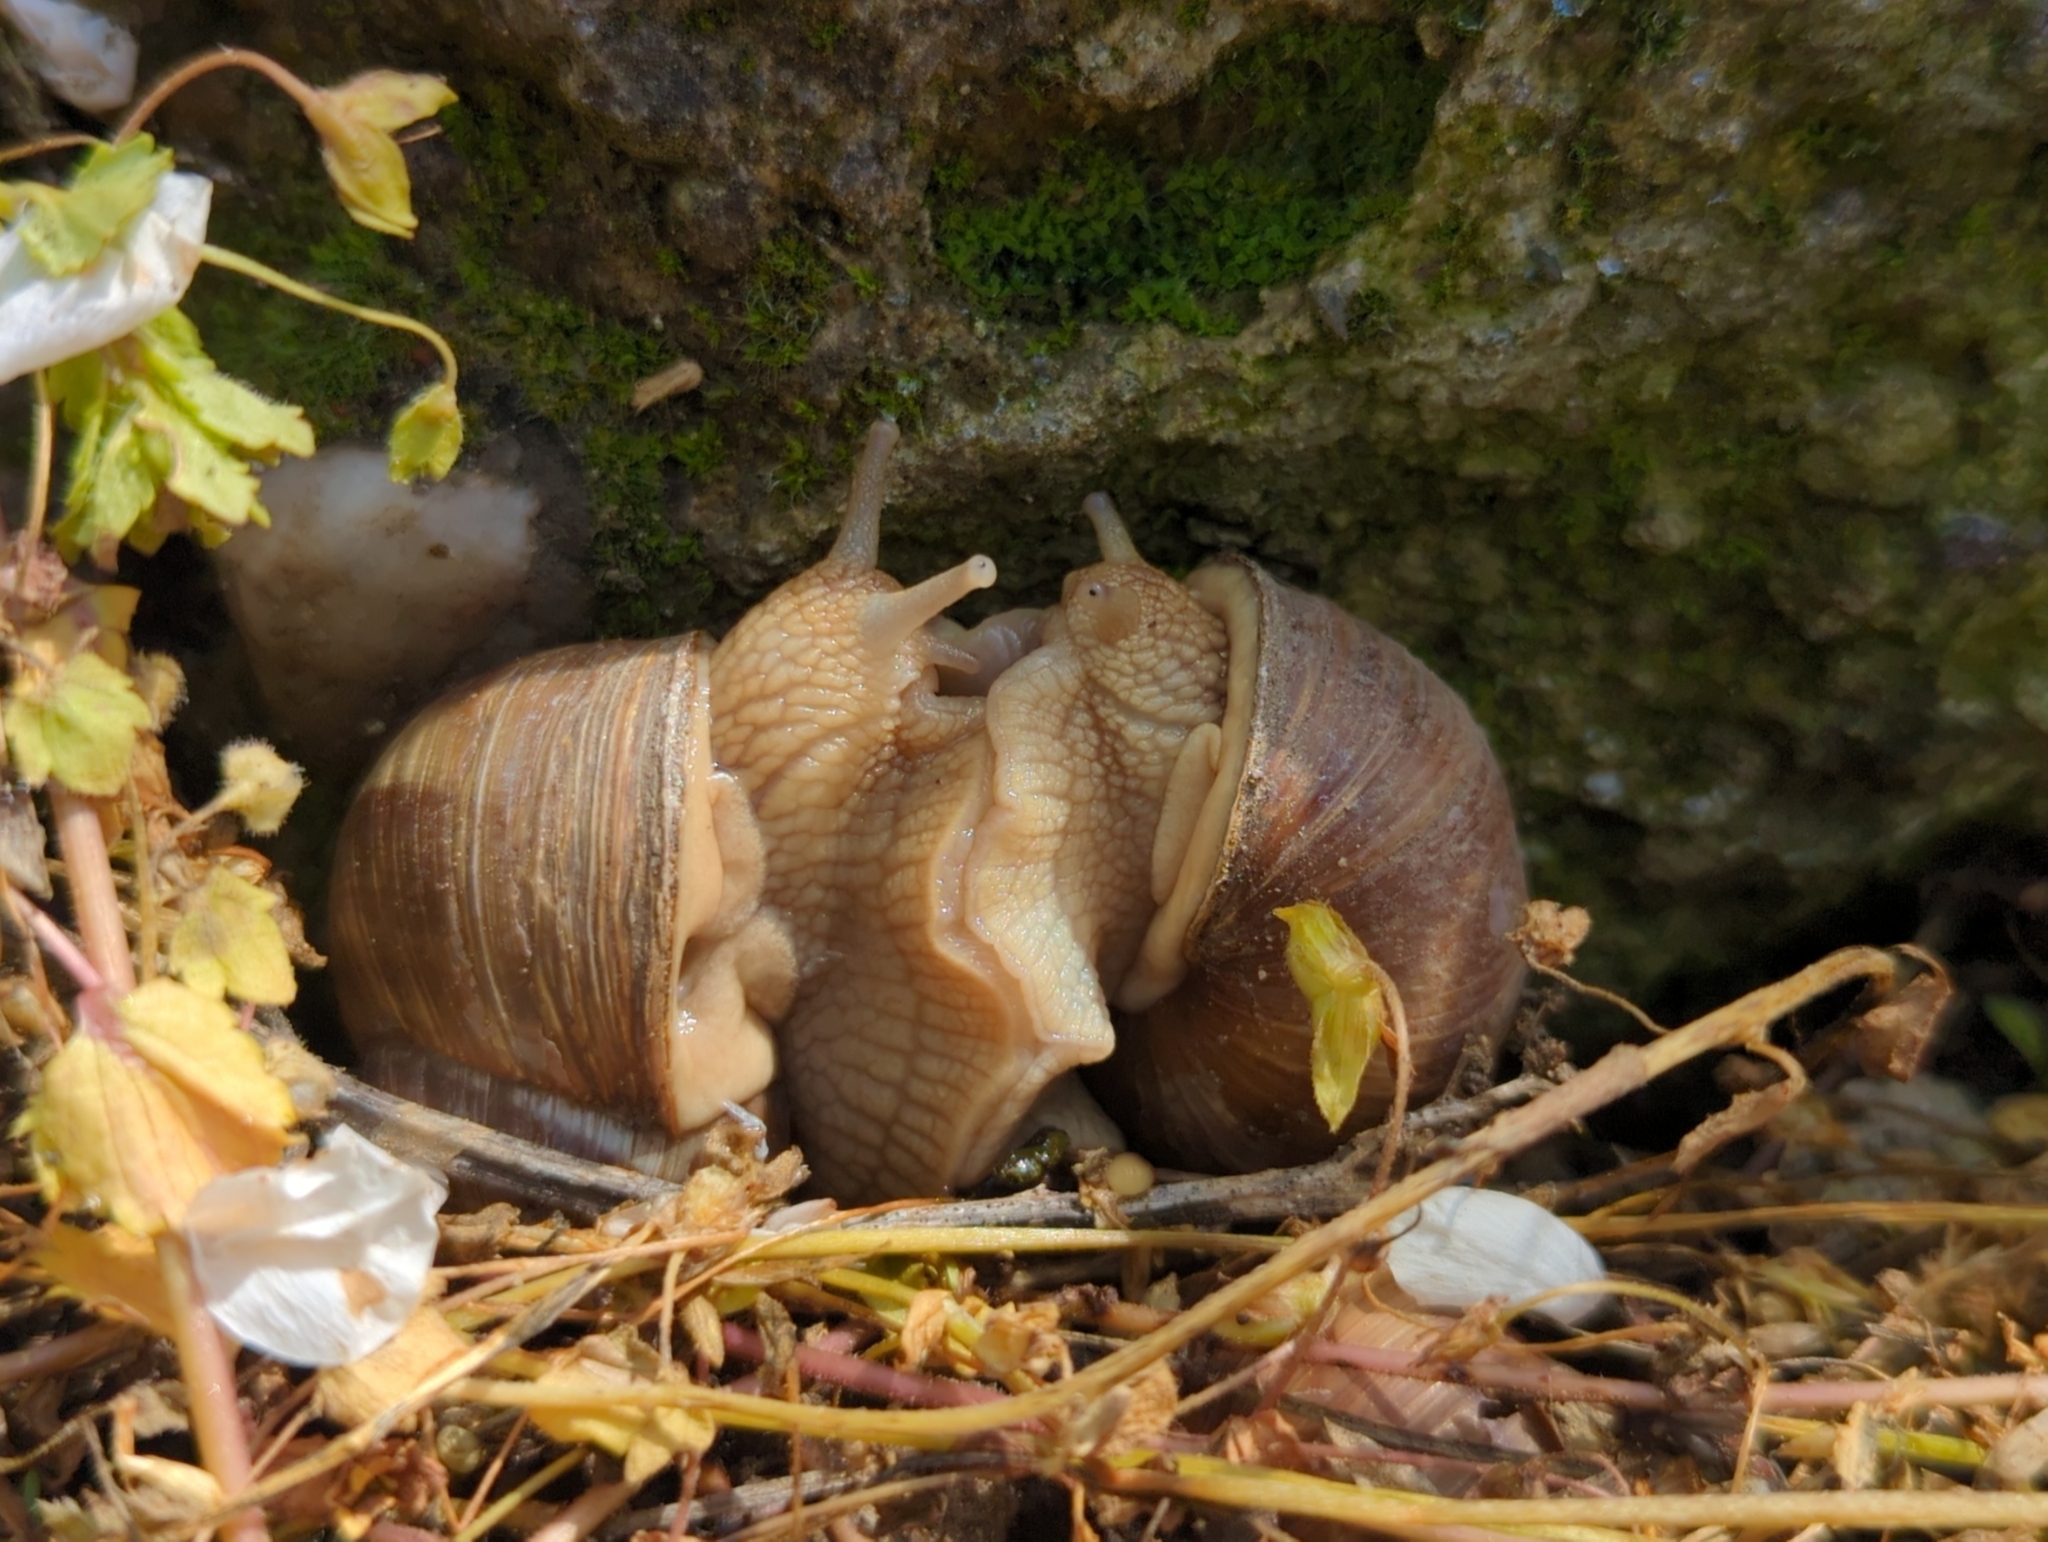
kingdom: Animalia
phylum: Mollusca
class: Gastropoda
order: Stylommatophora
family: Helicidae
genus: Helix
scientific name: Helix pomatia
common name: Roman snail
